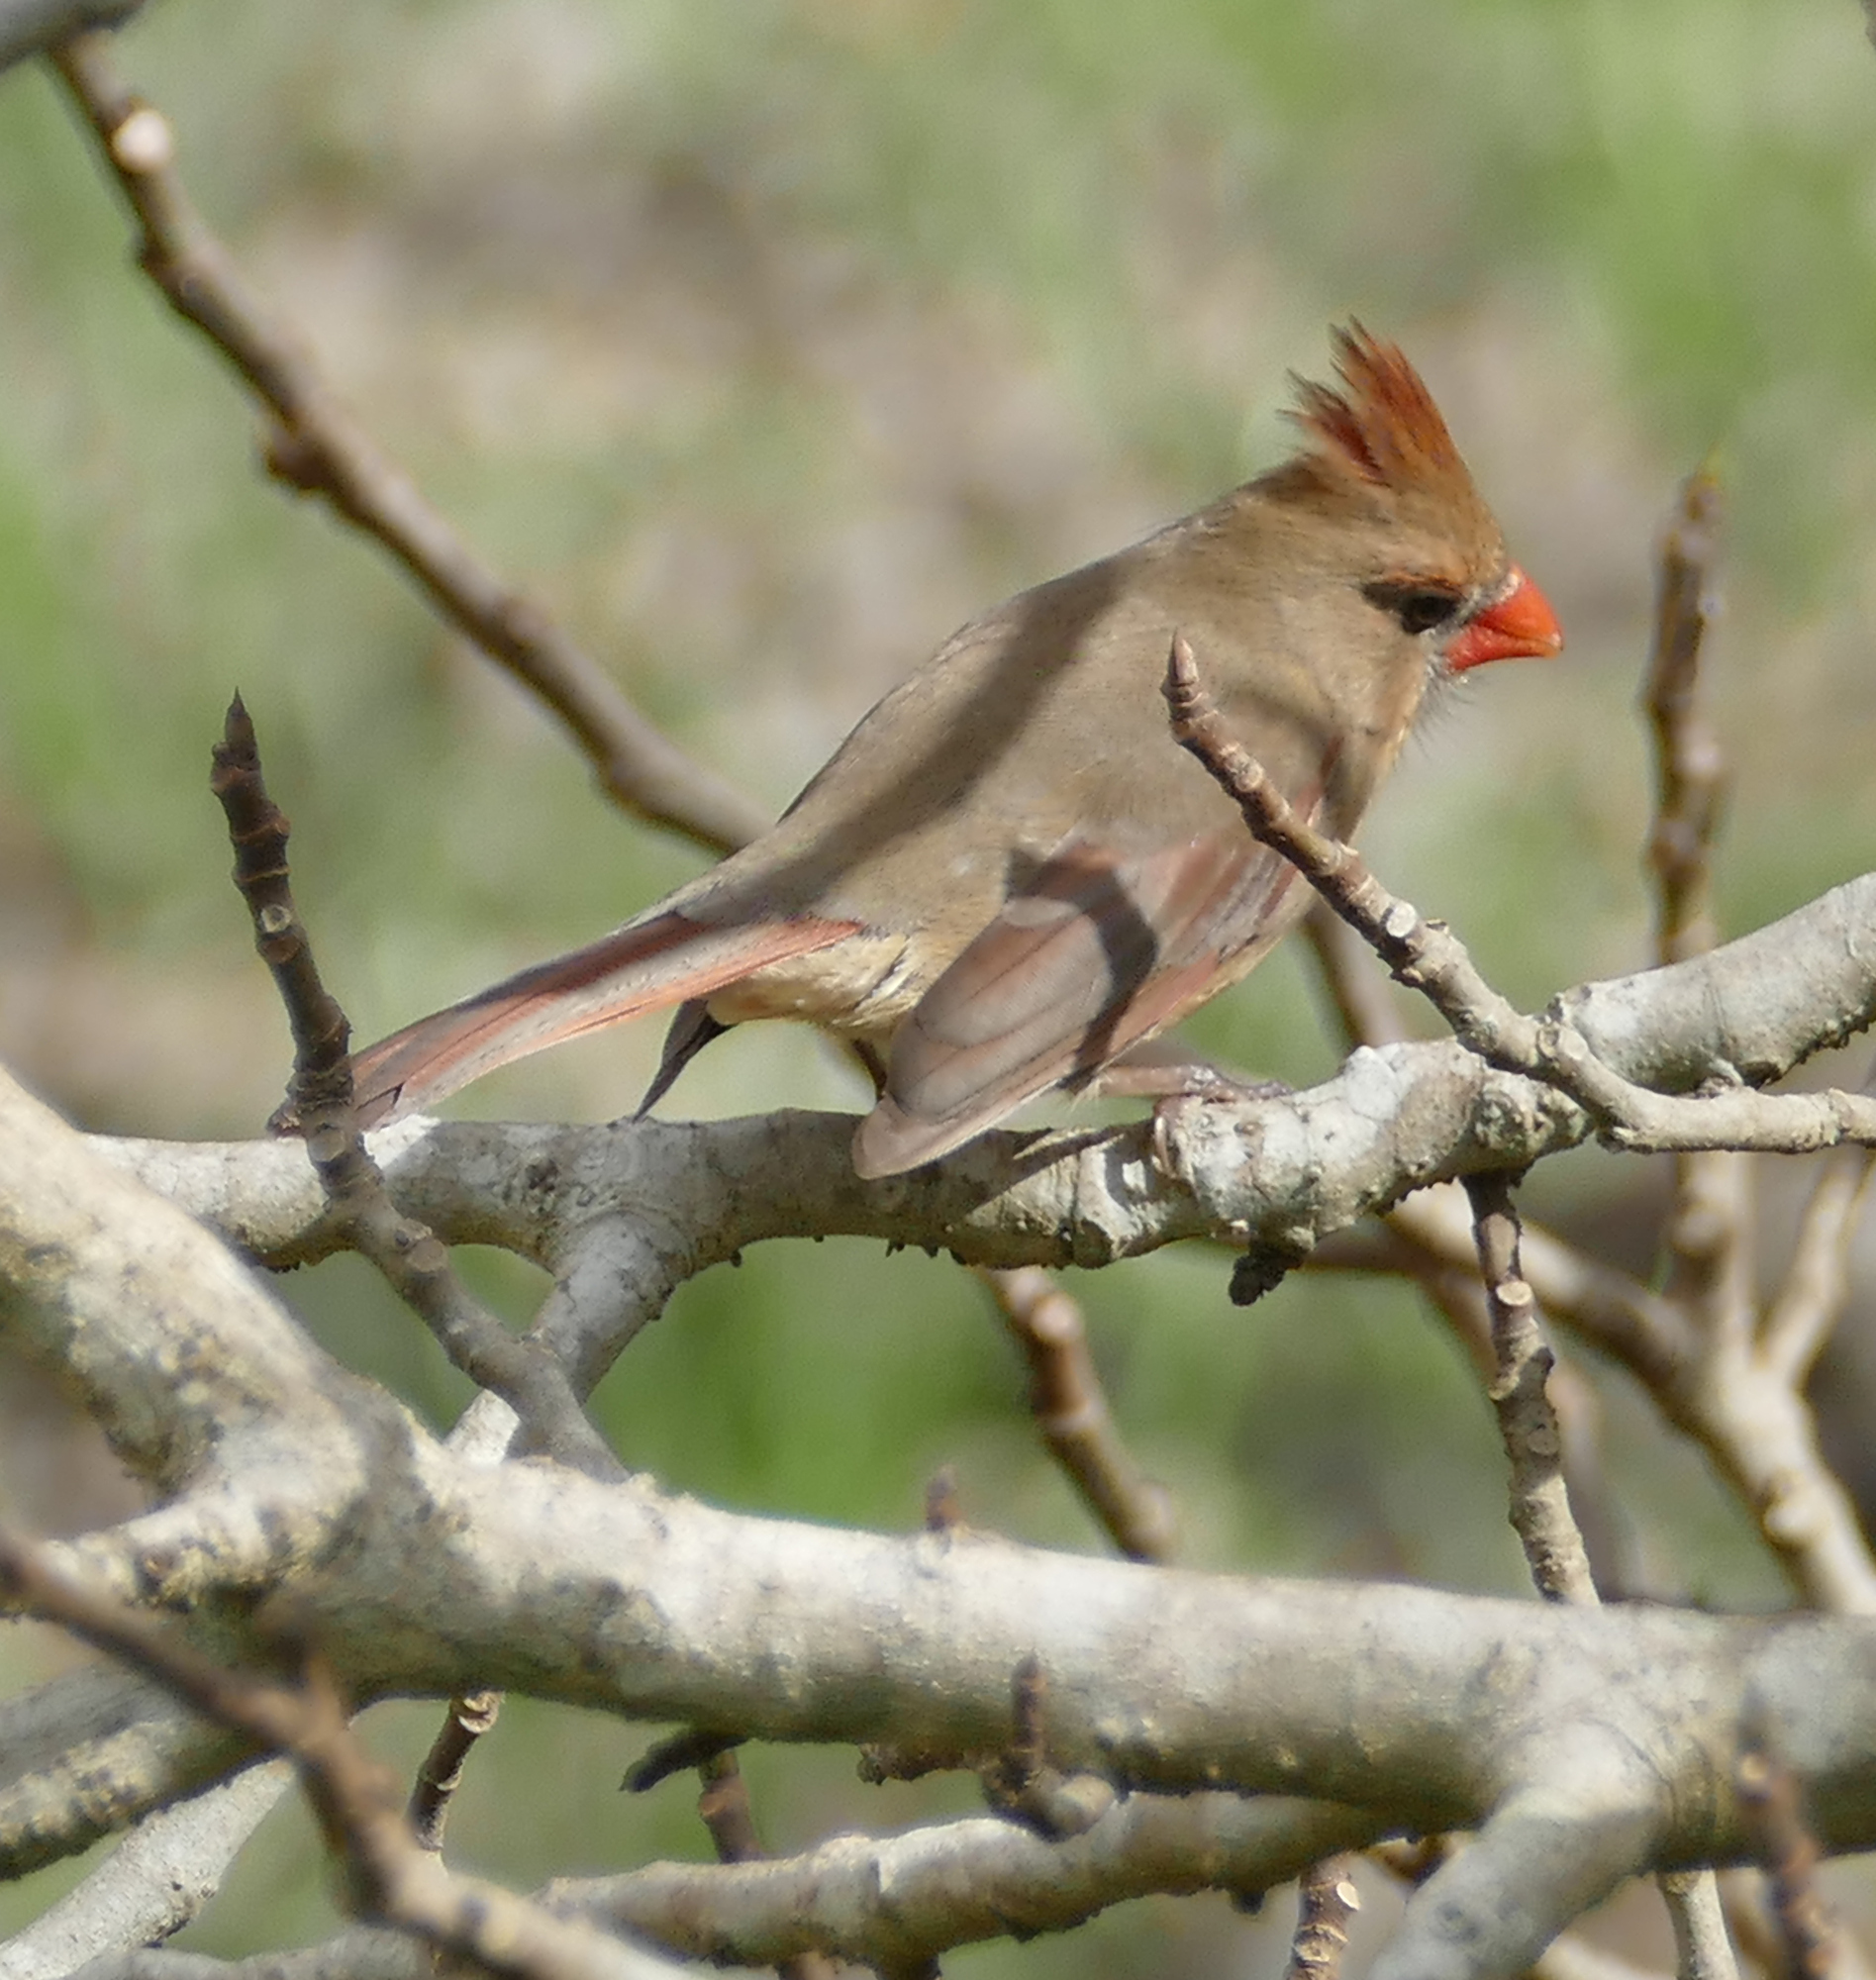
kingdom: Animalia
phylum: Chordata
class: Aves
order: Passeriformes
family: Cardinalidae
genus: Cardinalis
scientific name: Cardinalis cardinalis
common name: Northern cardinal
